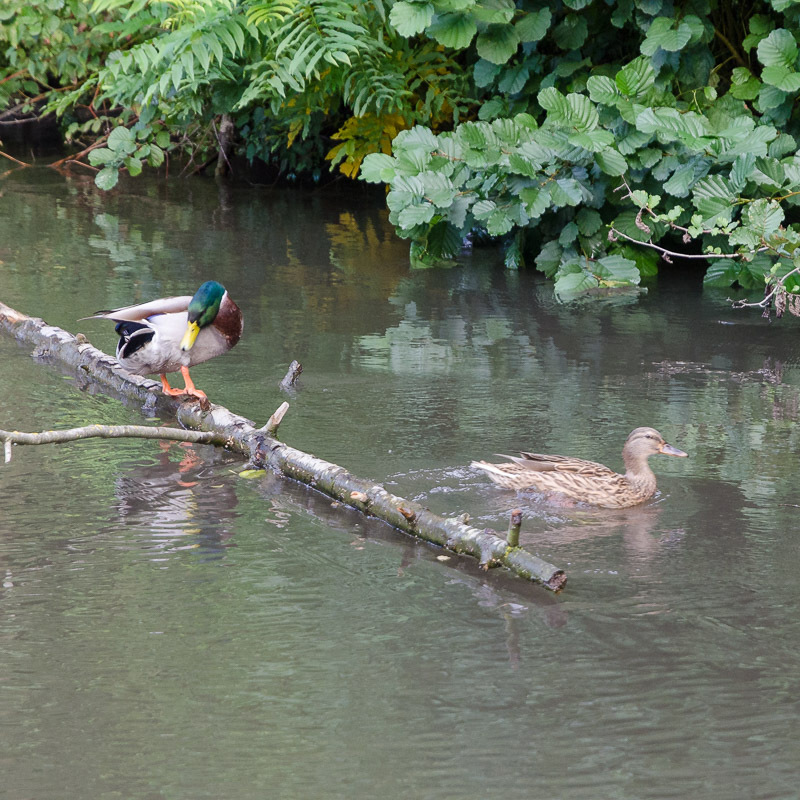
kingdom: Animalia
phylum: Chordata
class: Aves
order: Anseriformes
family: Anatidae
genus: Anas
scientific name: Anas platyrhynchos
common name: Mallard
